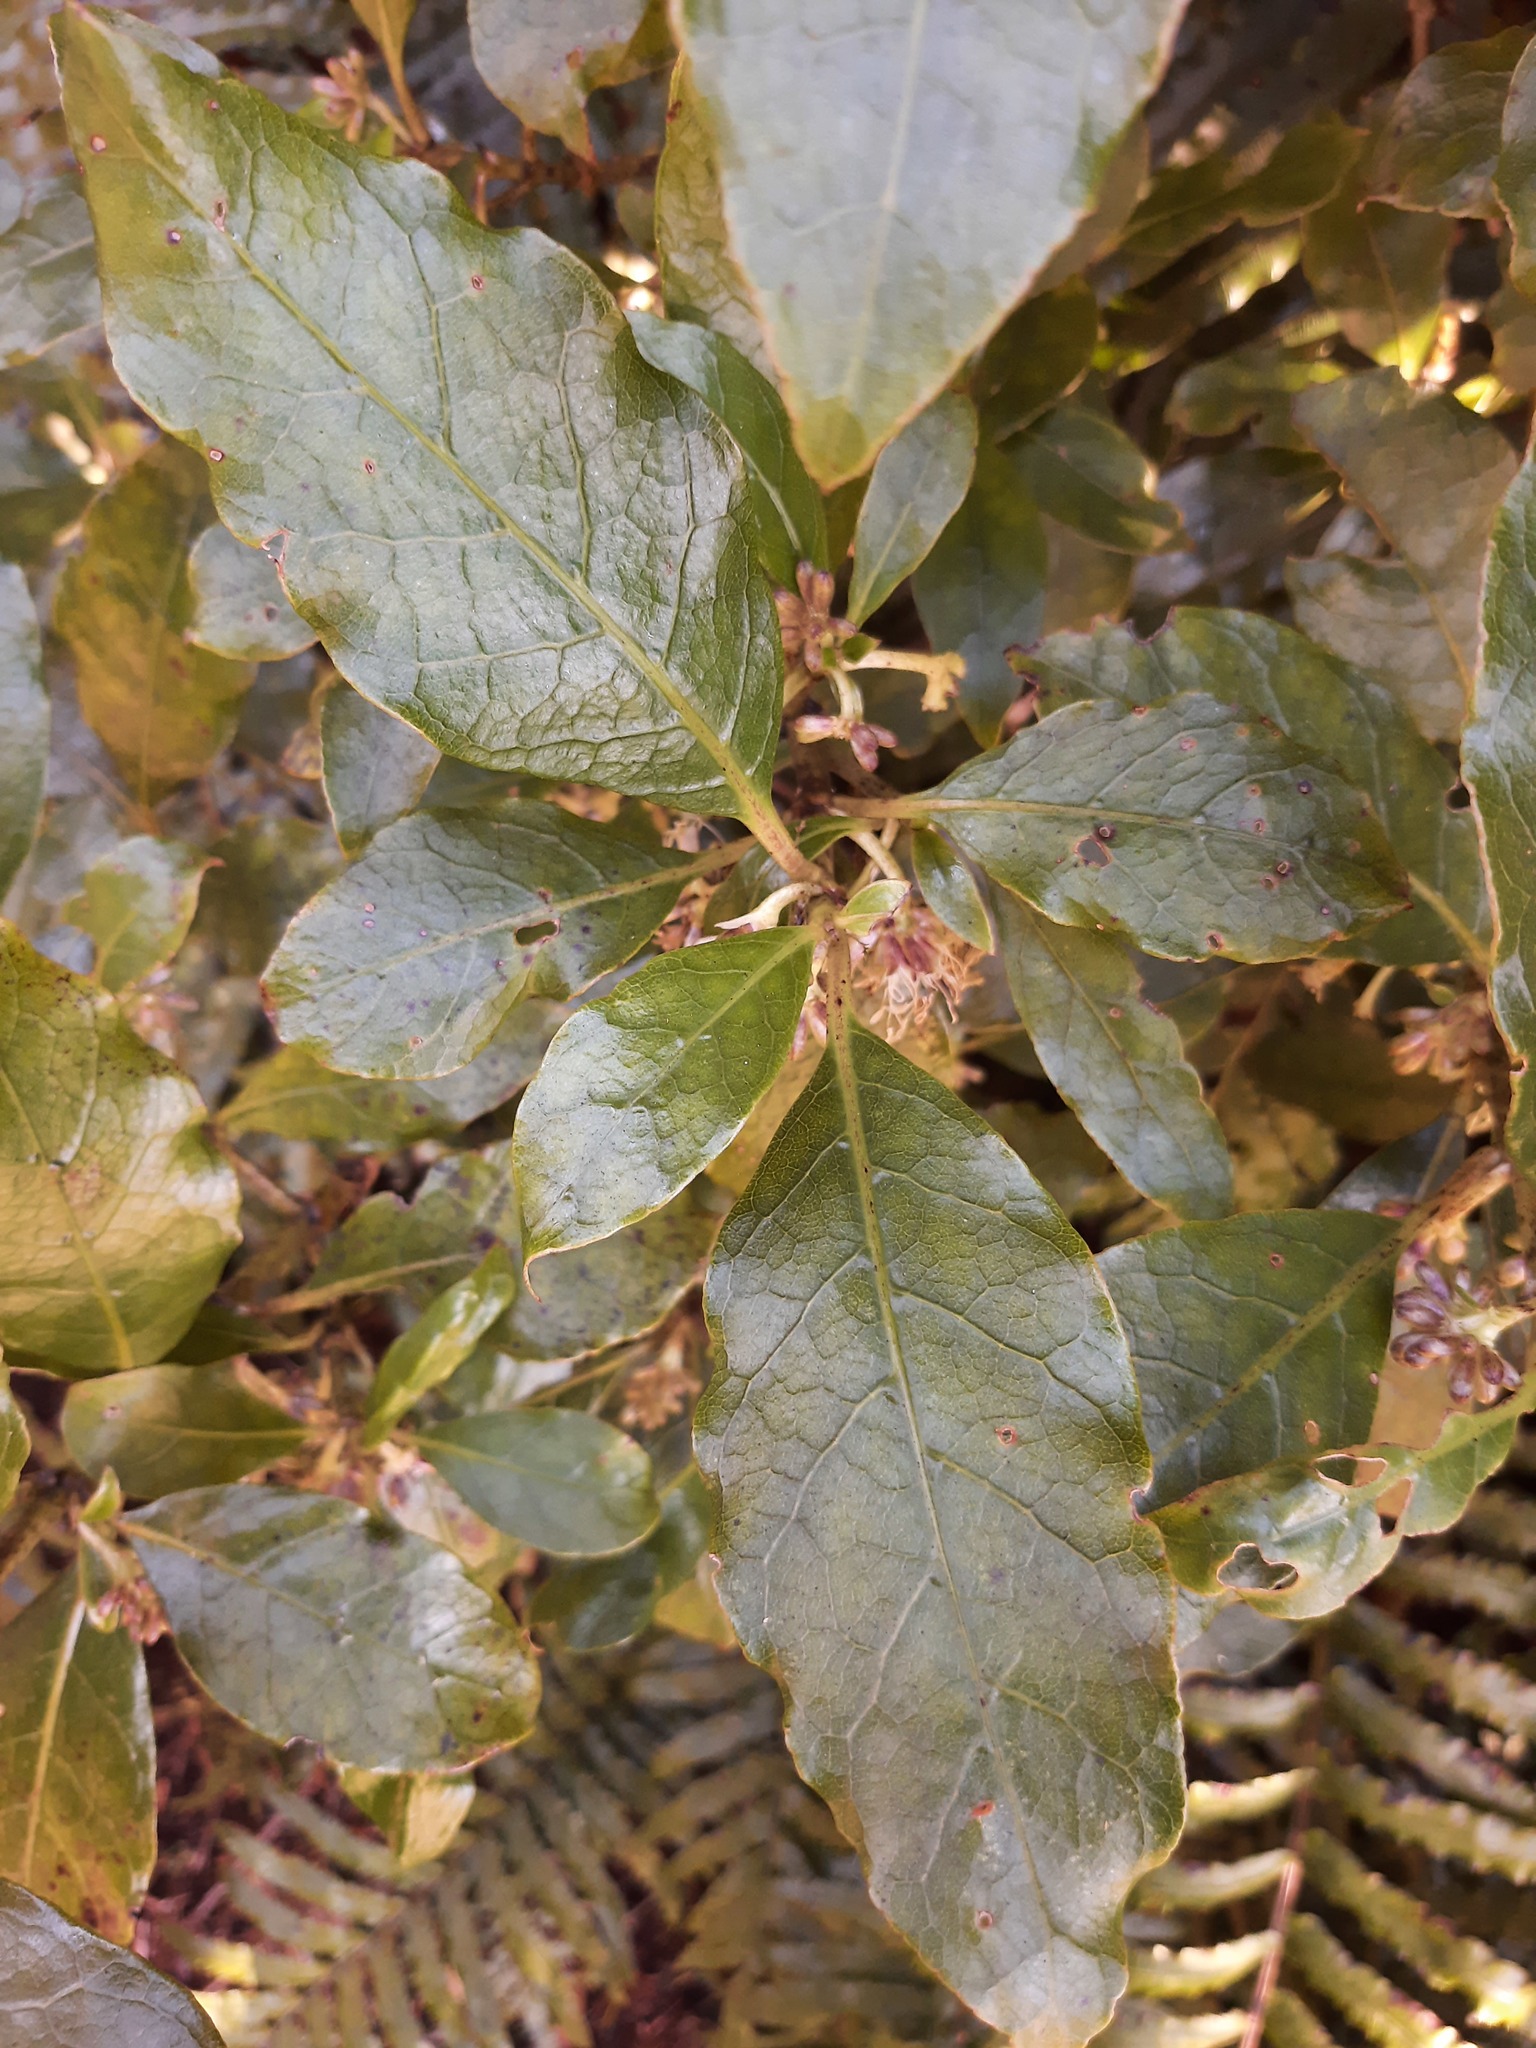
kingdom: Plantae
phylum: Tracheophyta
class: Magnoliopsida
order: Gentianales
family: Rubiaceae
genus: Coprosma
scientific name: Coprosma autumnalis
